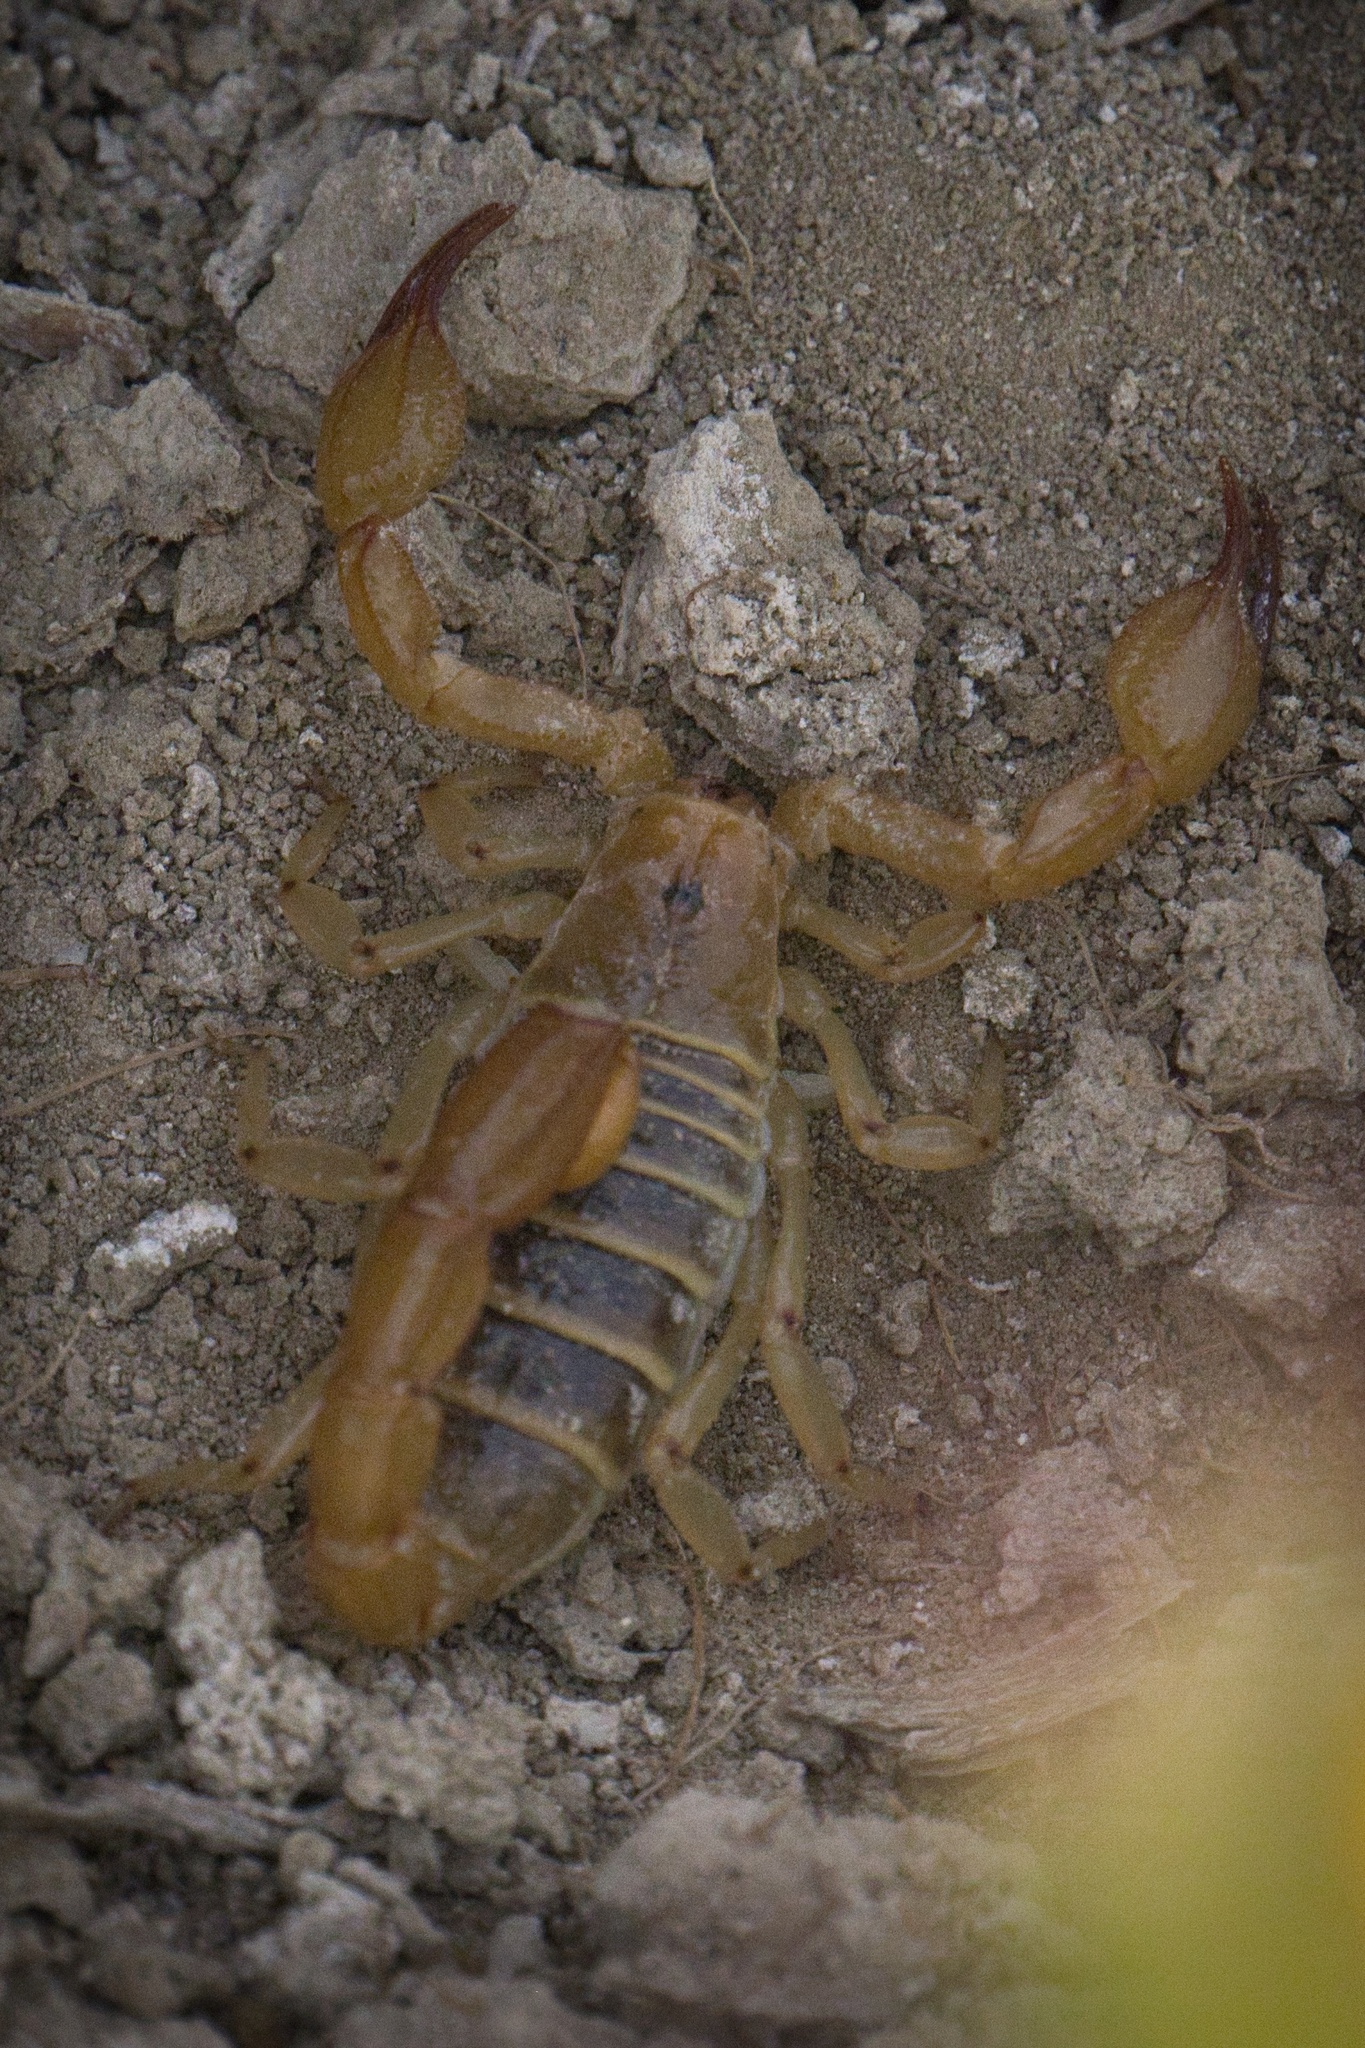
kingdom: Animalia
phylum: Arthropoda
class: Arachnida
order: Scorpiones
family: Vaejovidae
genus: Paruroctonus
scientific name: Paruroctonus soda
